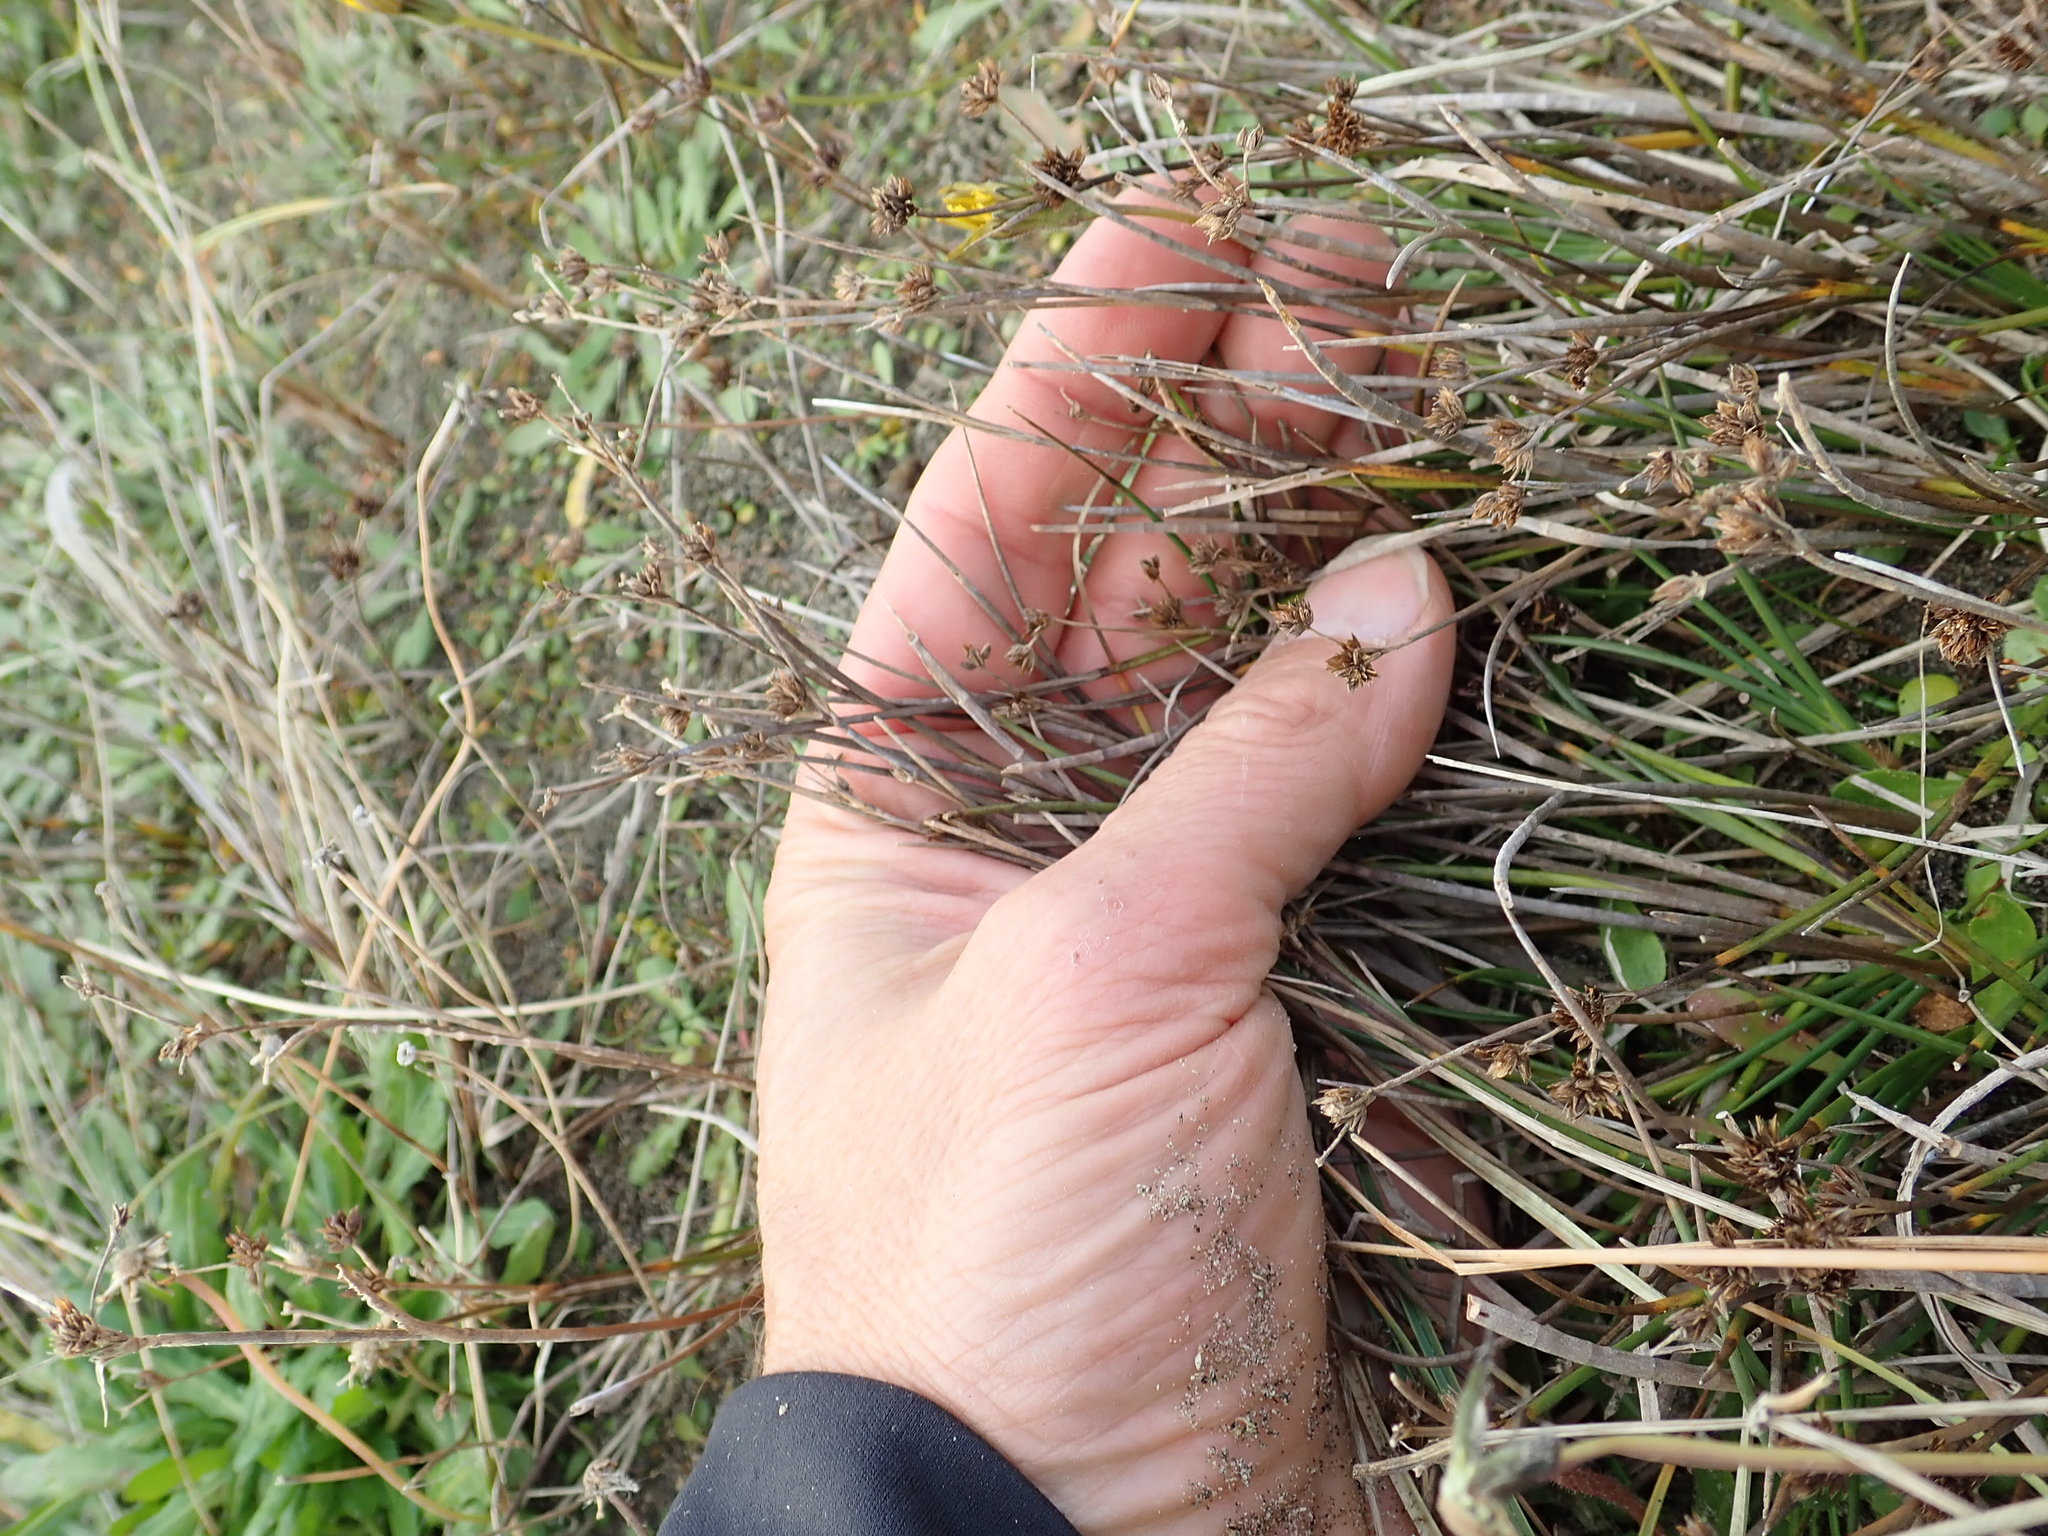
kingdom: Plantae
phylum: Tracheophyta
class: Liliopsida
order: Poales
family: Juncaceae
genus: Juncus
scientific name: Juncus articulatus
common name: Jointed rush
